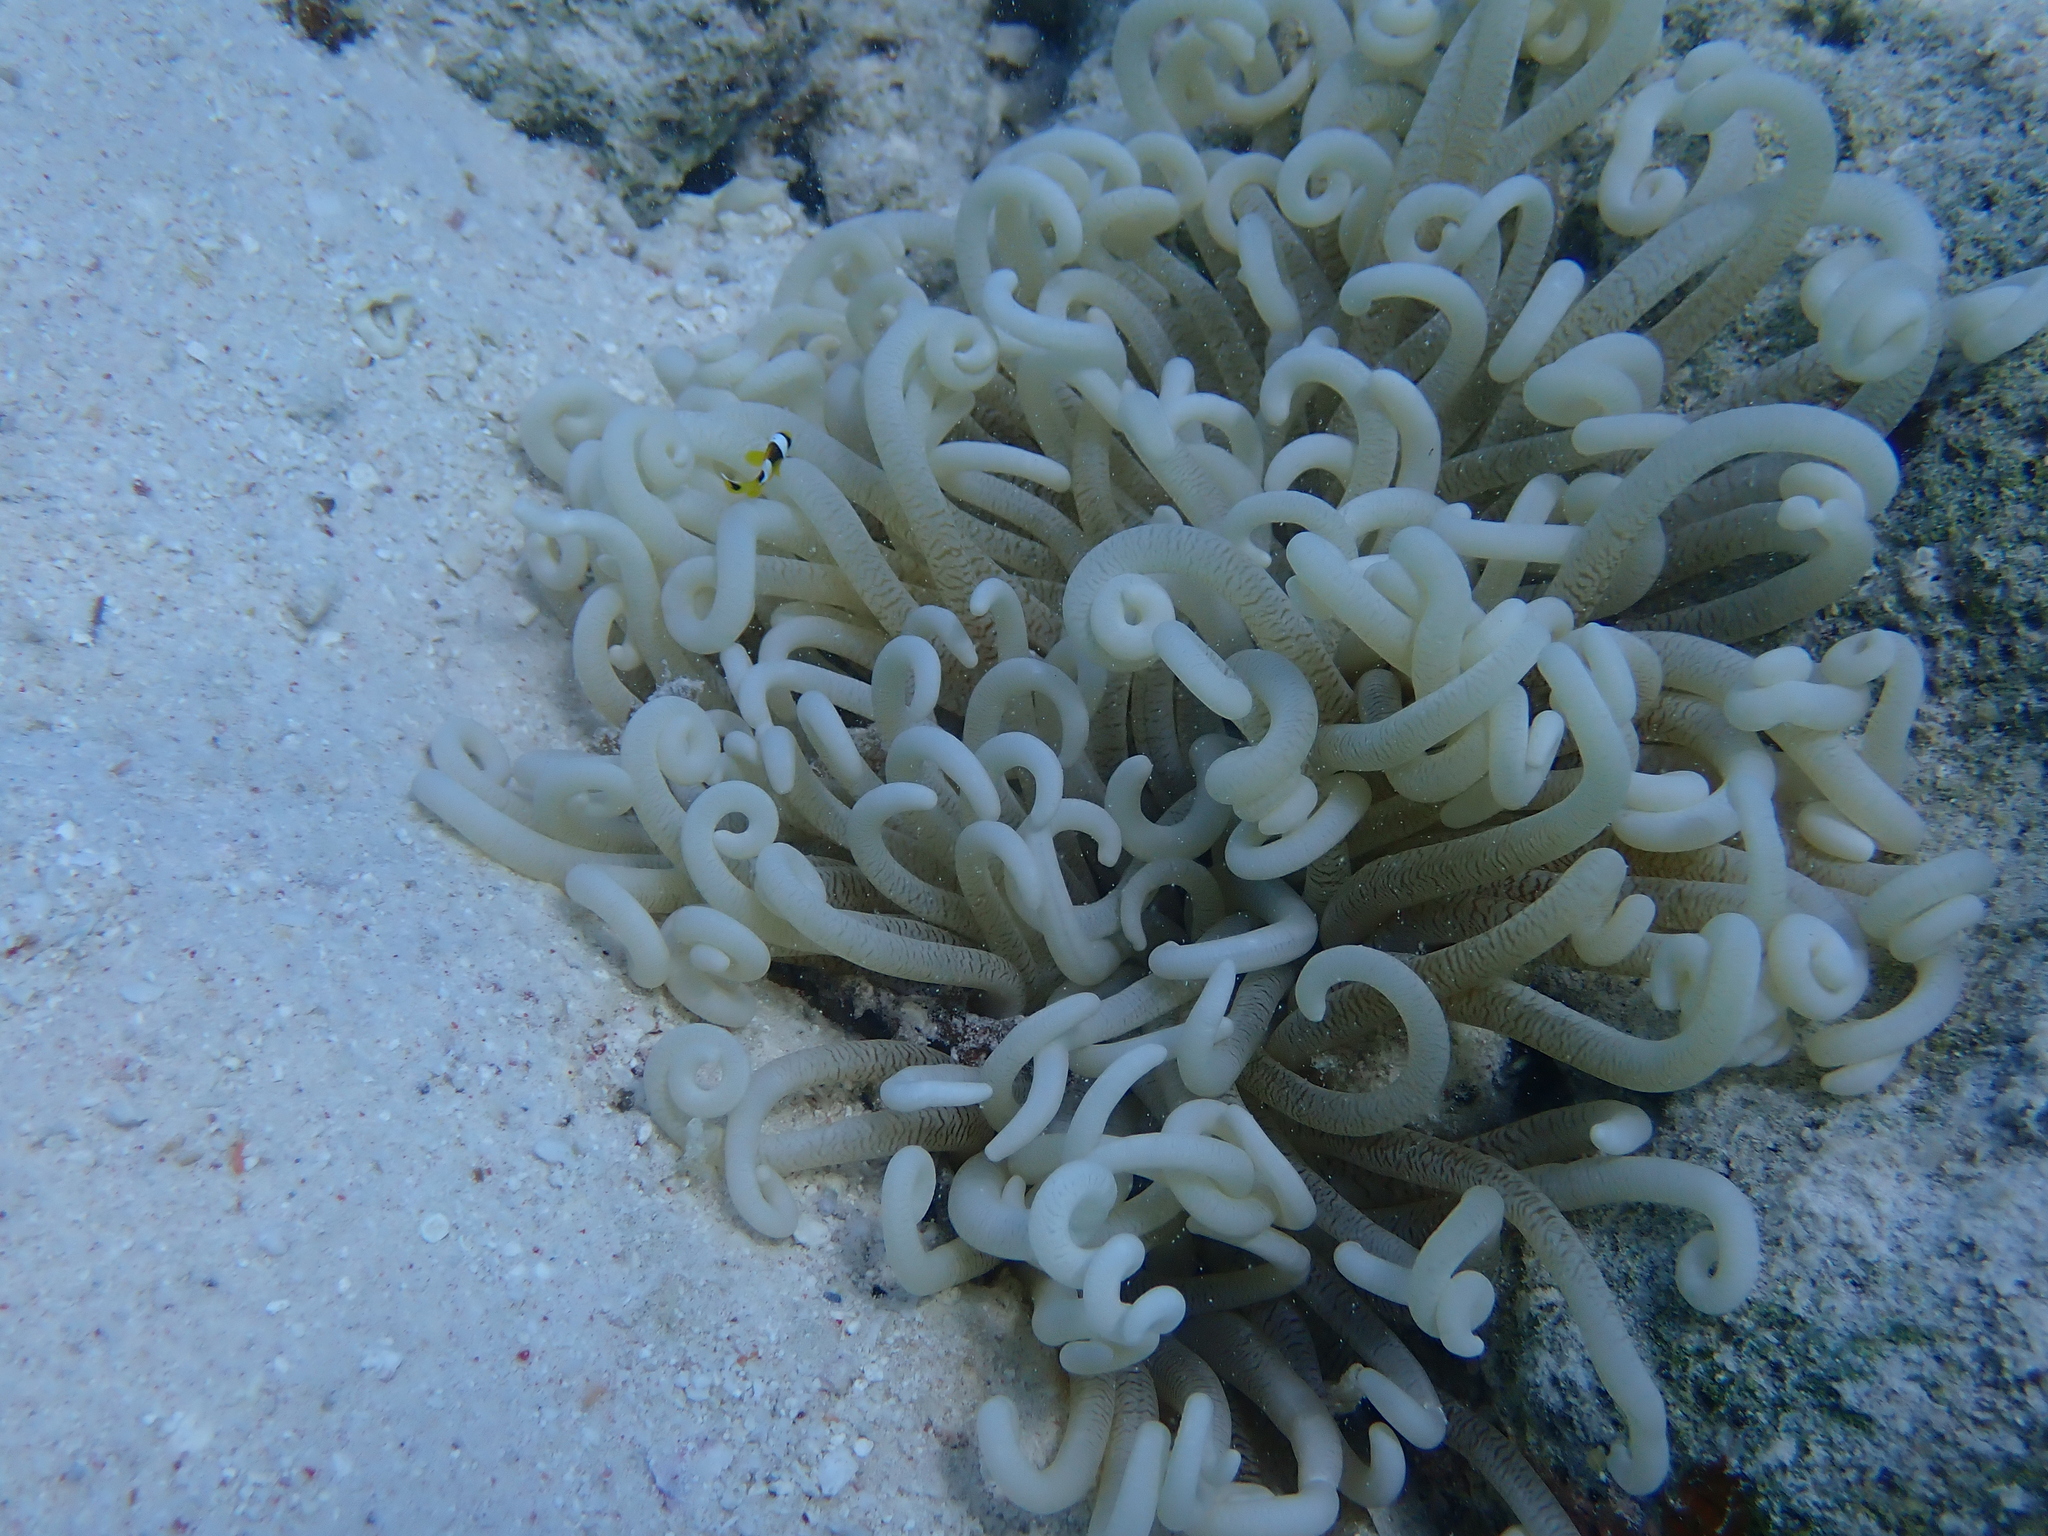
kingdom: Animalia
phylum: Cnidaria
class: Anthozoa
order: Actiniaria
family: Stichodactylidae
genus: Radianthus
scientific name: Radianthus crispa
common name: Leather anemone
